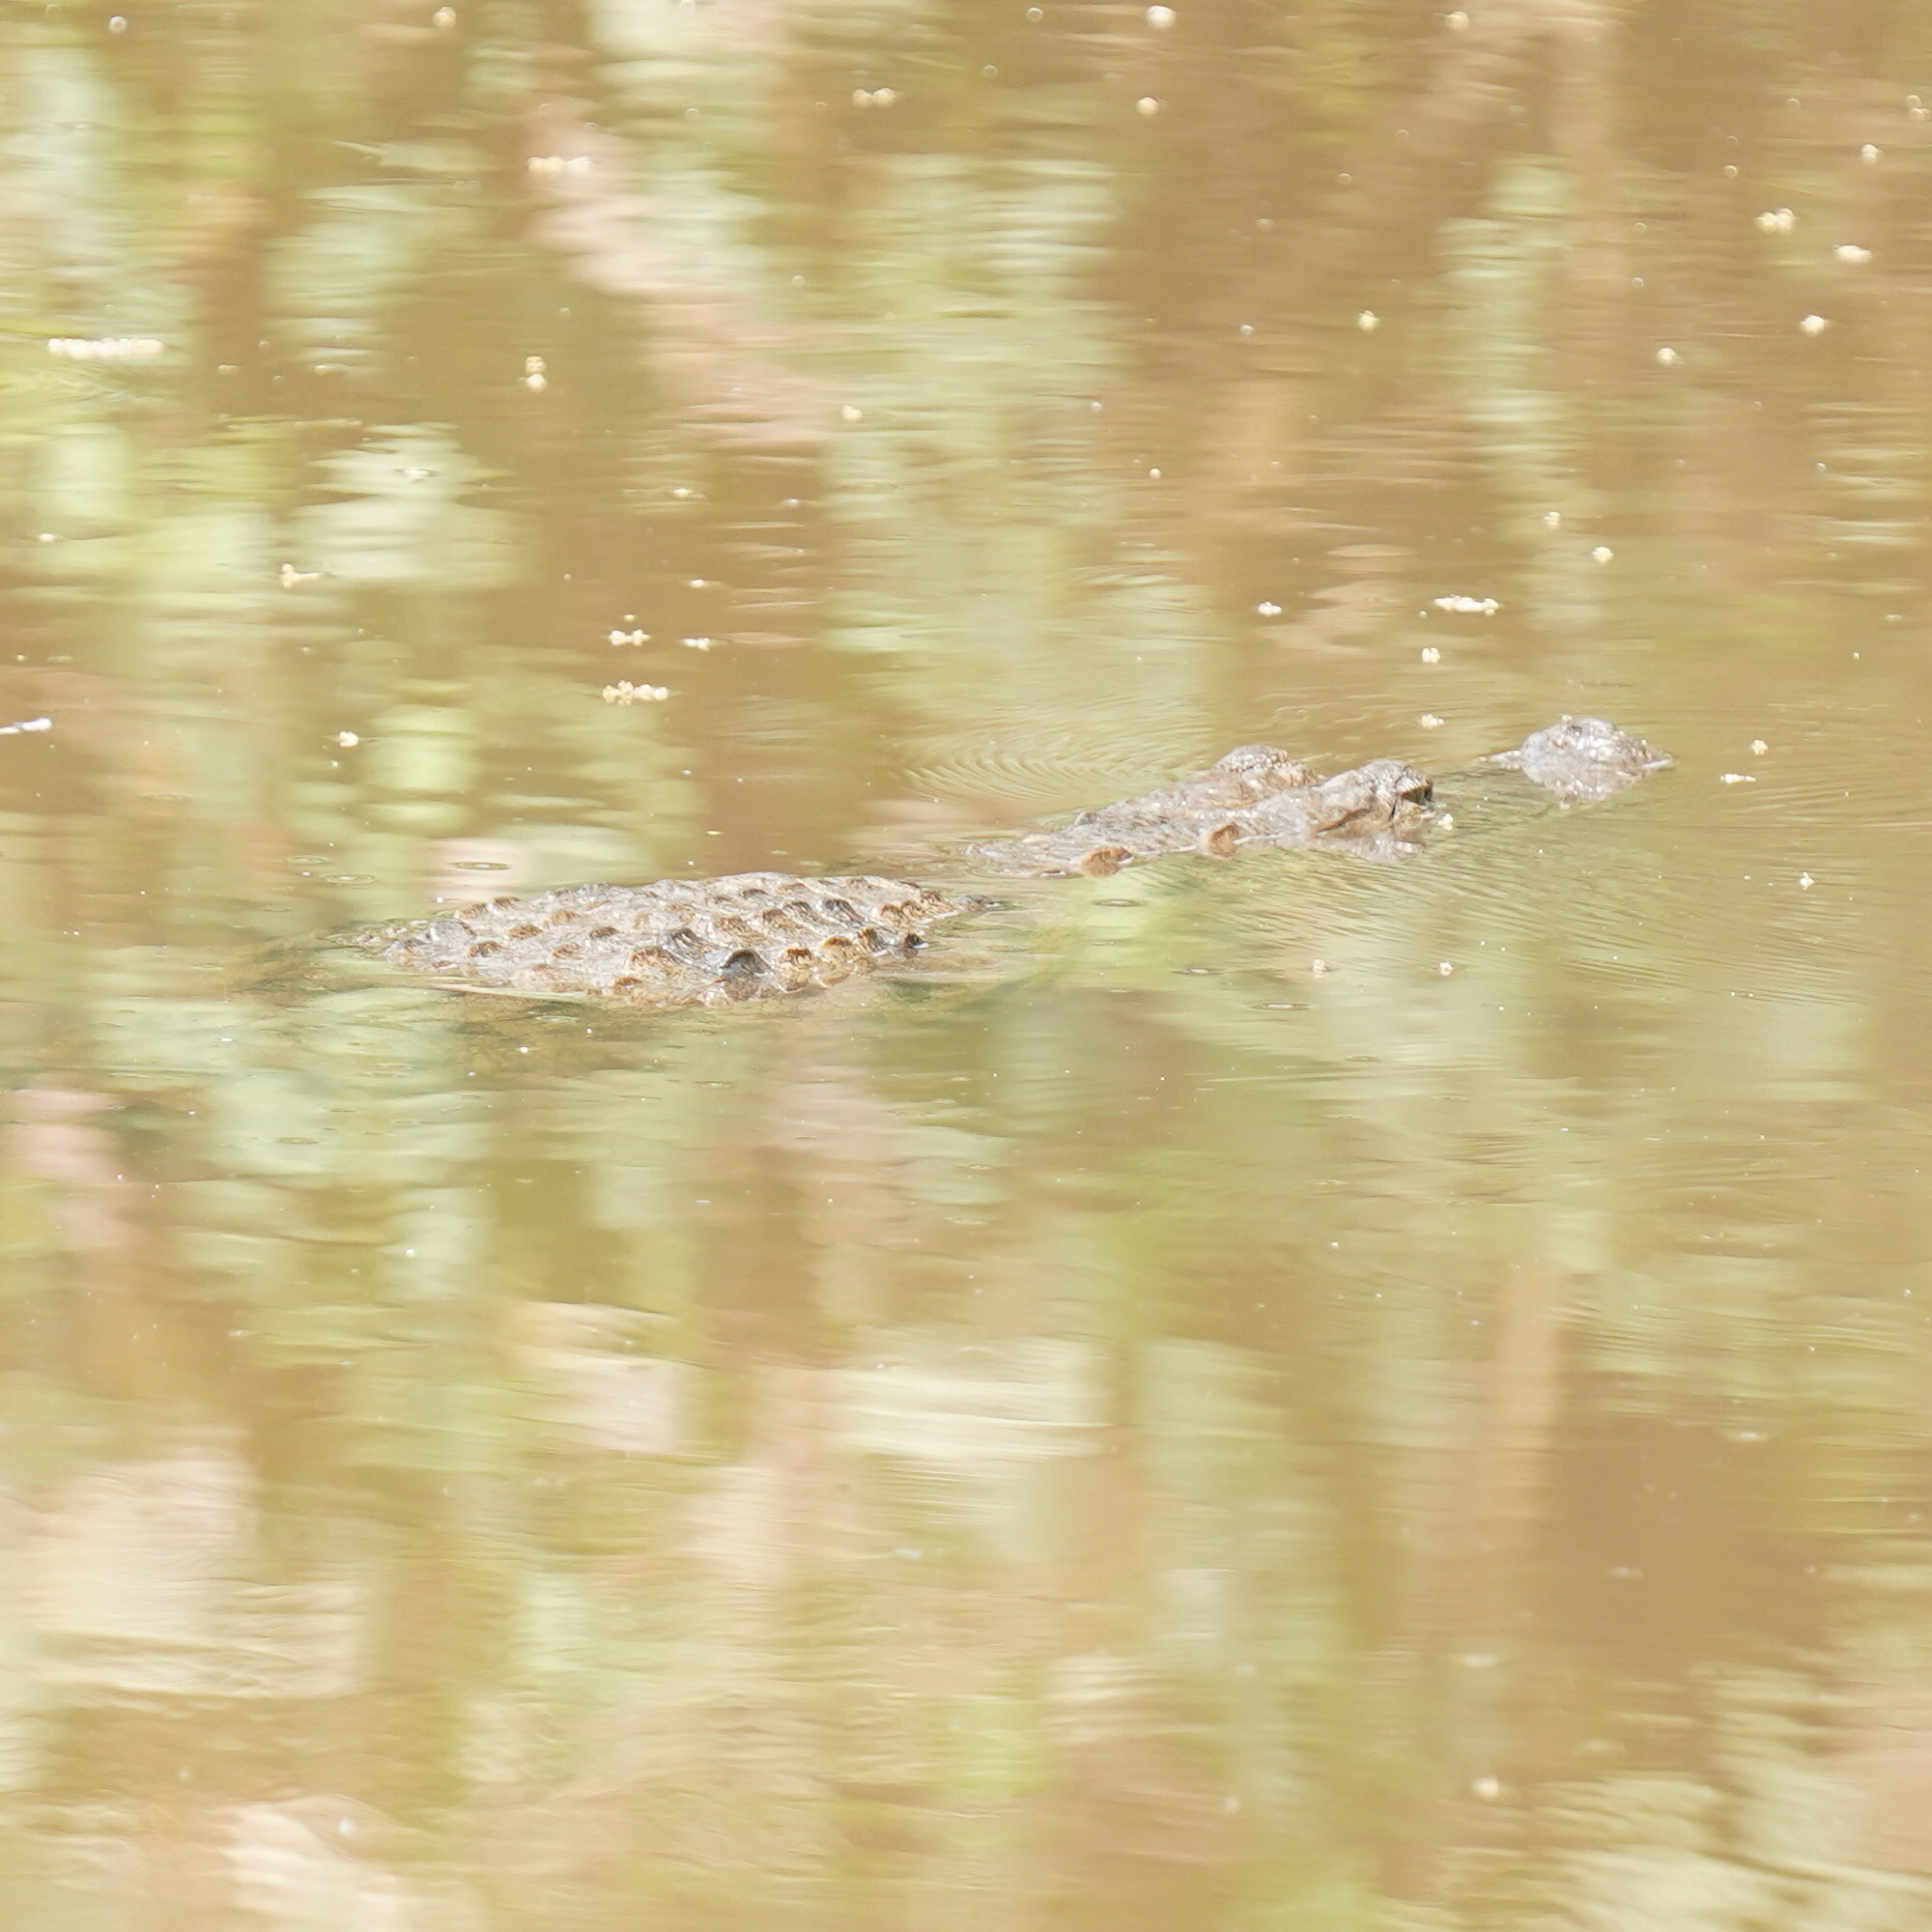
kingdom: Animalia
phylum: Chordata
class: Crocodylia
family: Crocodylidae
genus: Crocodylus
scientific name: Crocodylus suchus
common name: West african crocodile
